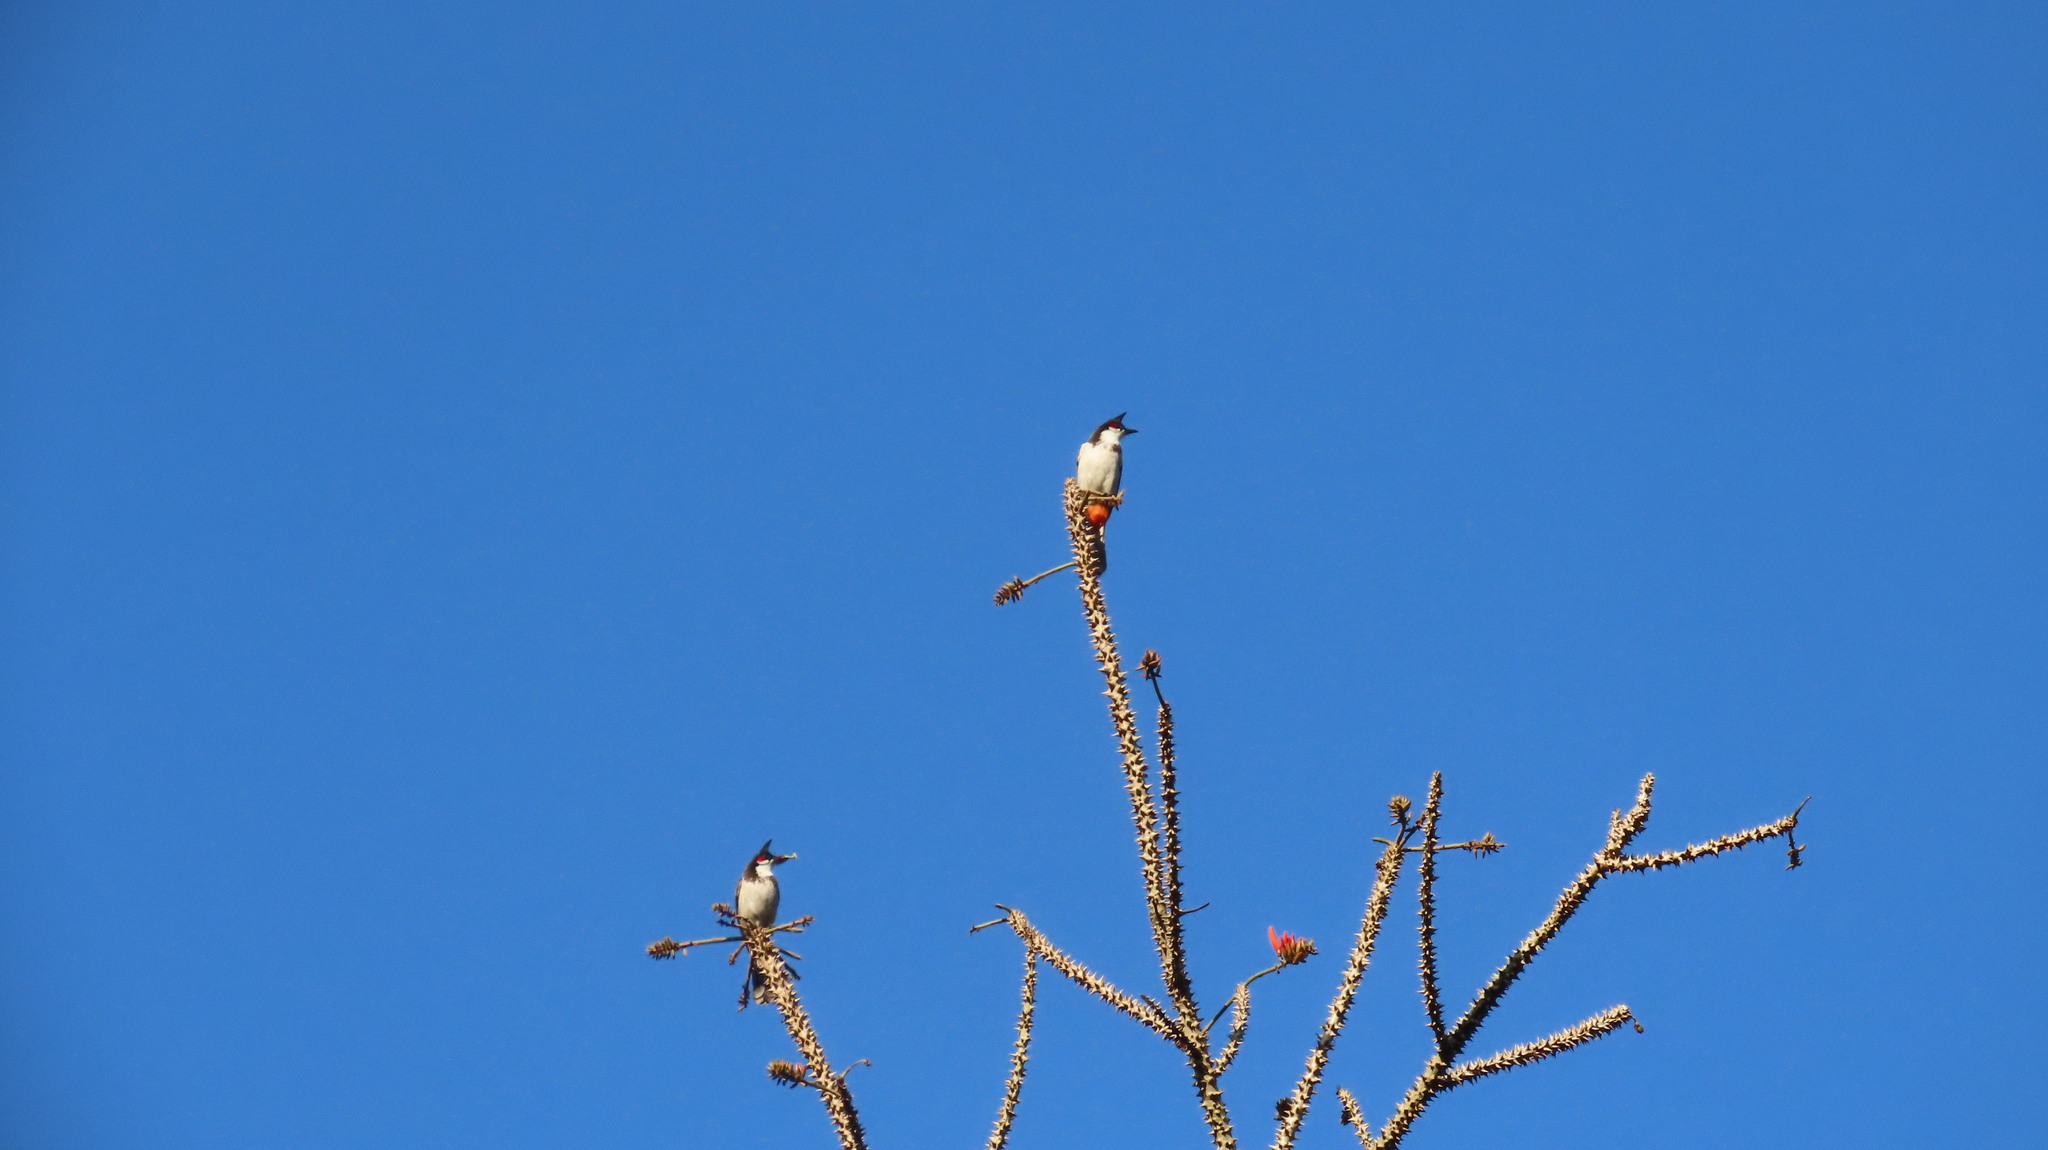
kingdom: Animalia
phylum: Chordata
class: Aves
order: Passeriformes
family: Pycnonotidae
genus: Pycnonotus
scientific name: Pycnonotus jocosus
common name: Red-whiskered bulbul
